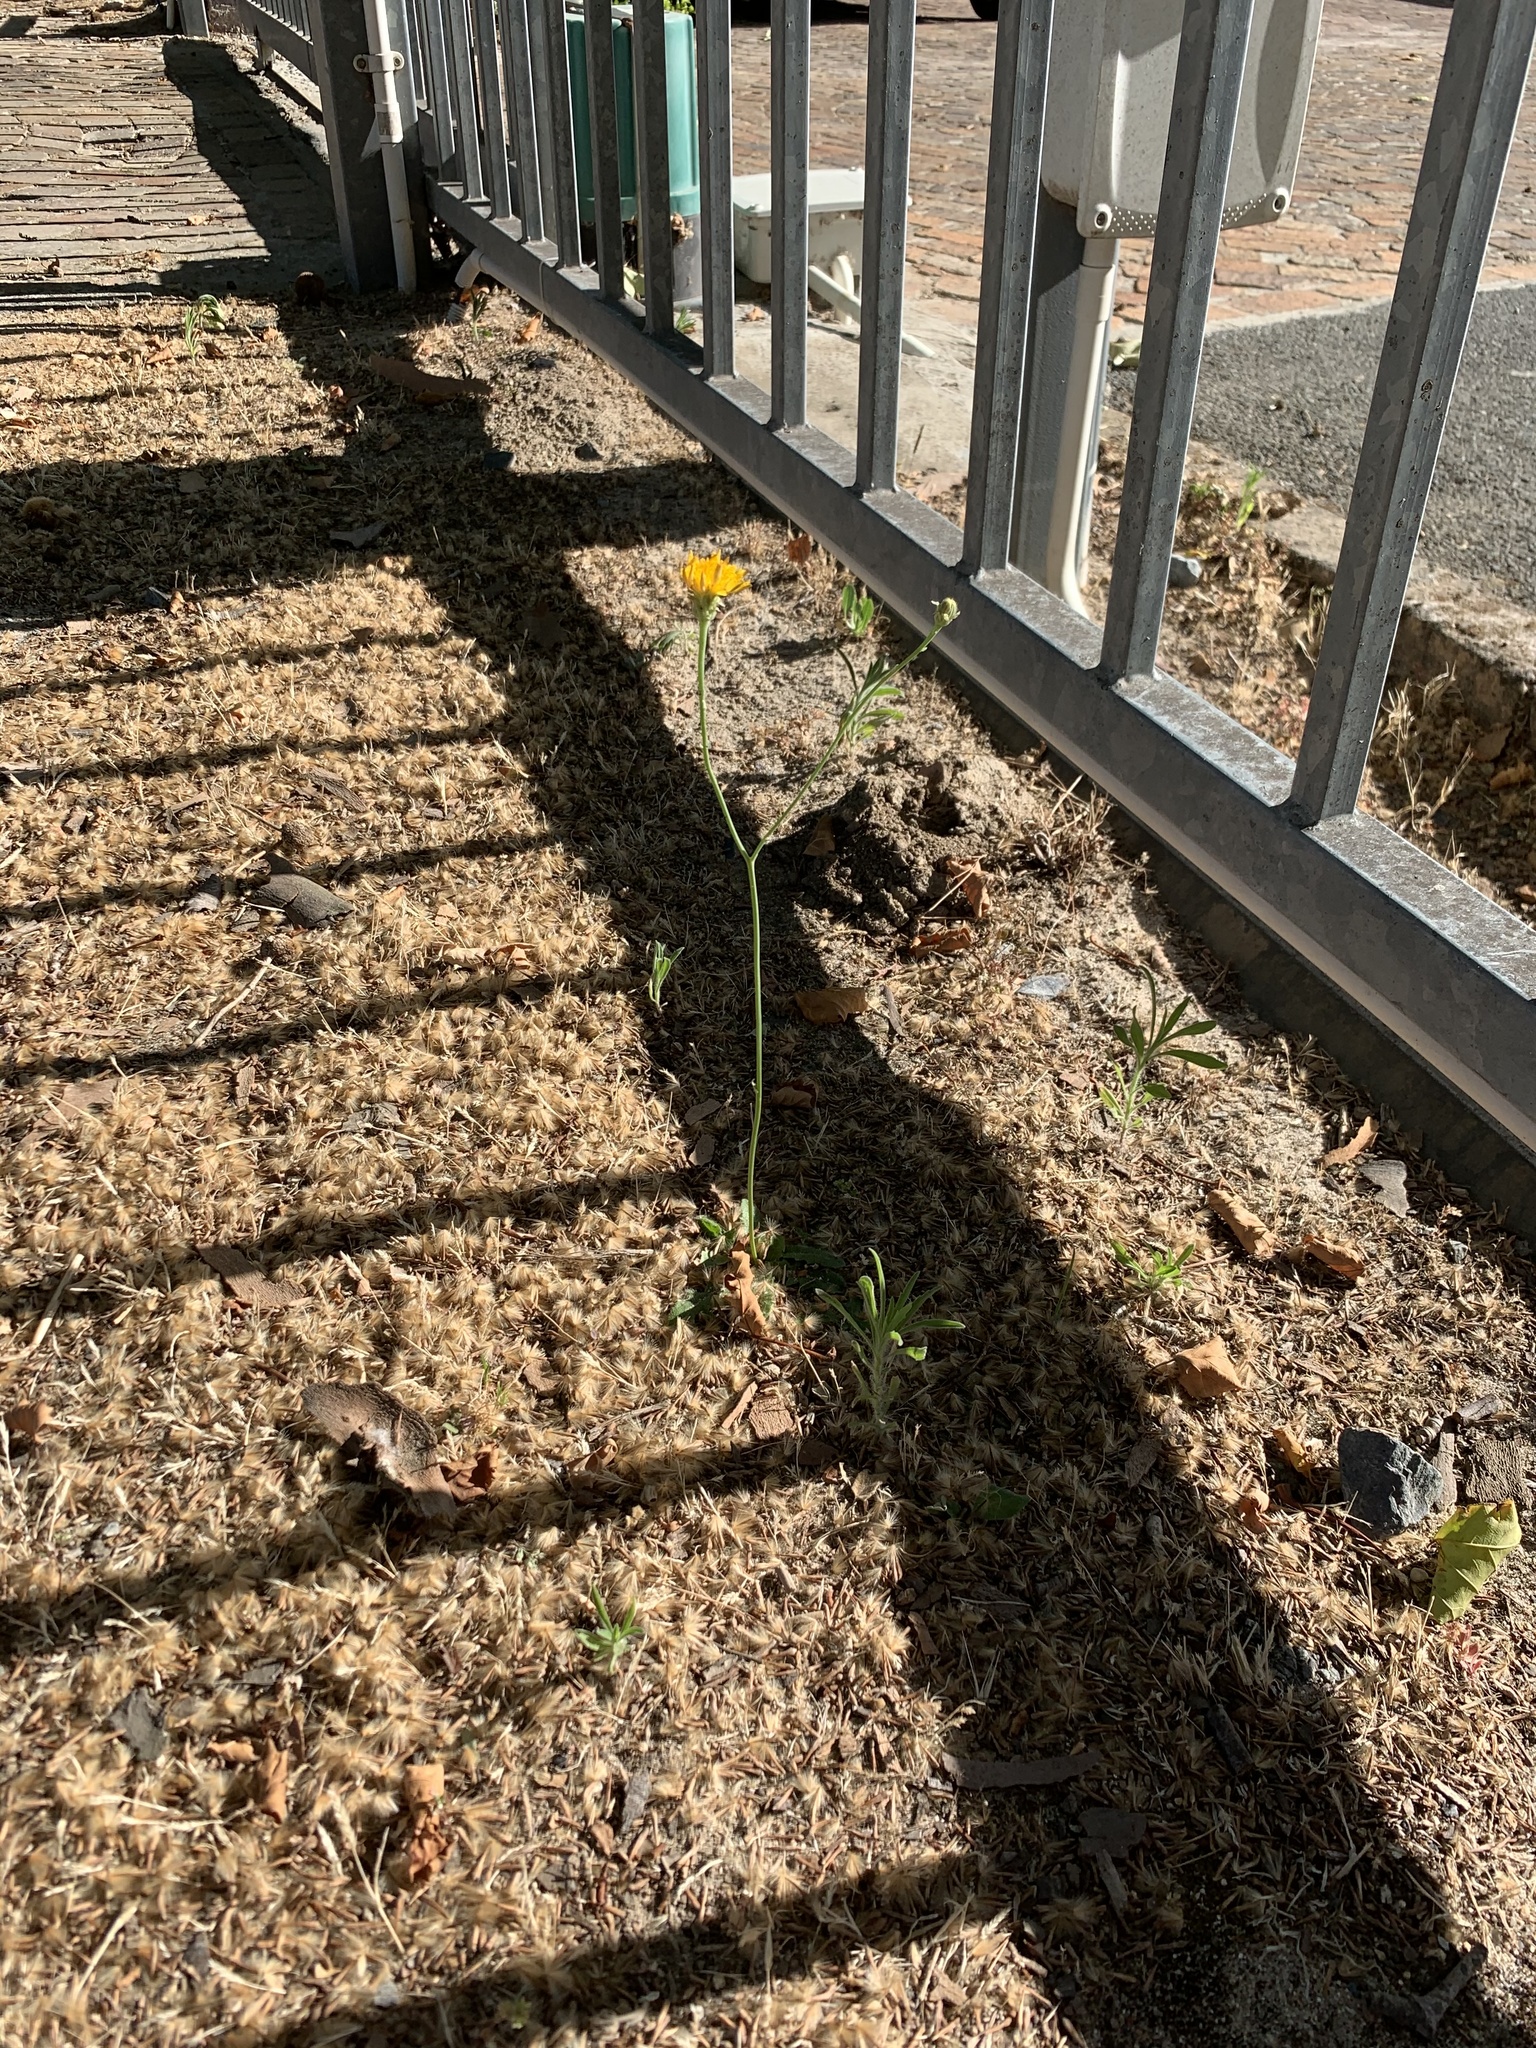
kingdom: Plantae
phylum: Tracheophyta
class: Magnoliopsida
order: Asterales
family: Asteraceae
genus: Hypochaeris
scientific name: Hypochaeris radicata
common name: Flatweed
